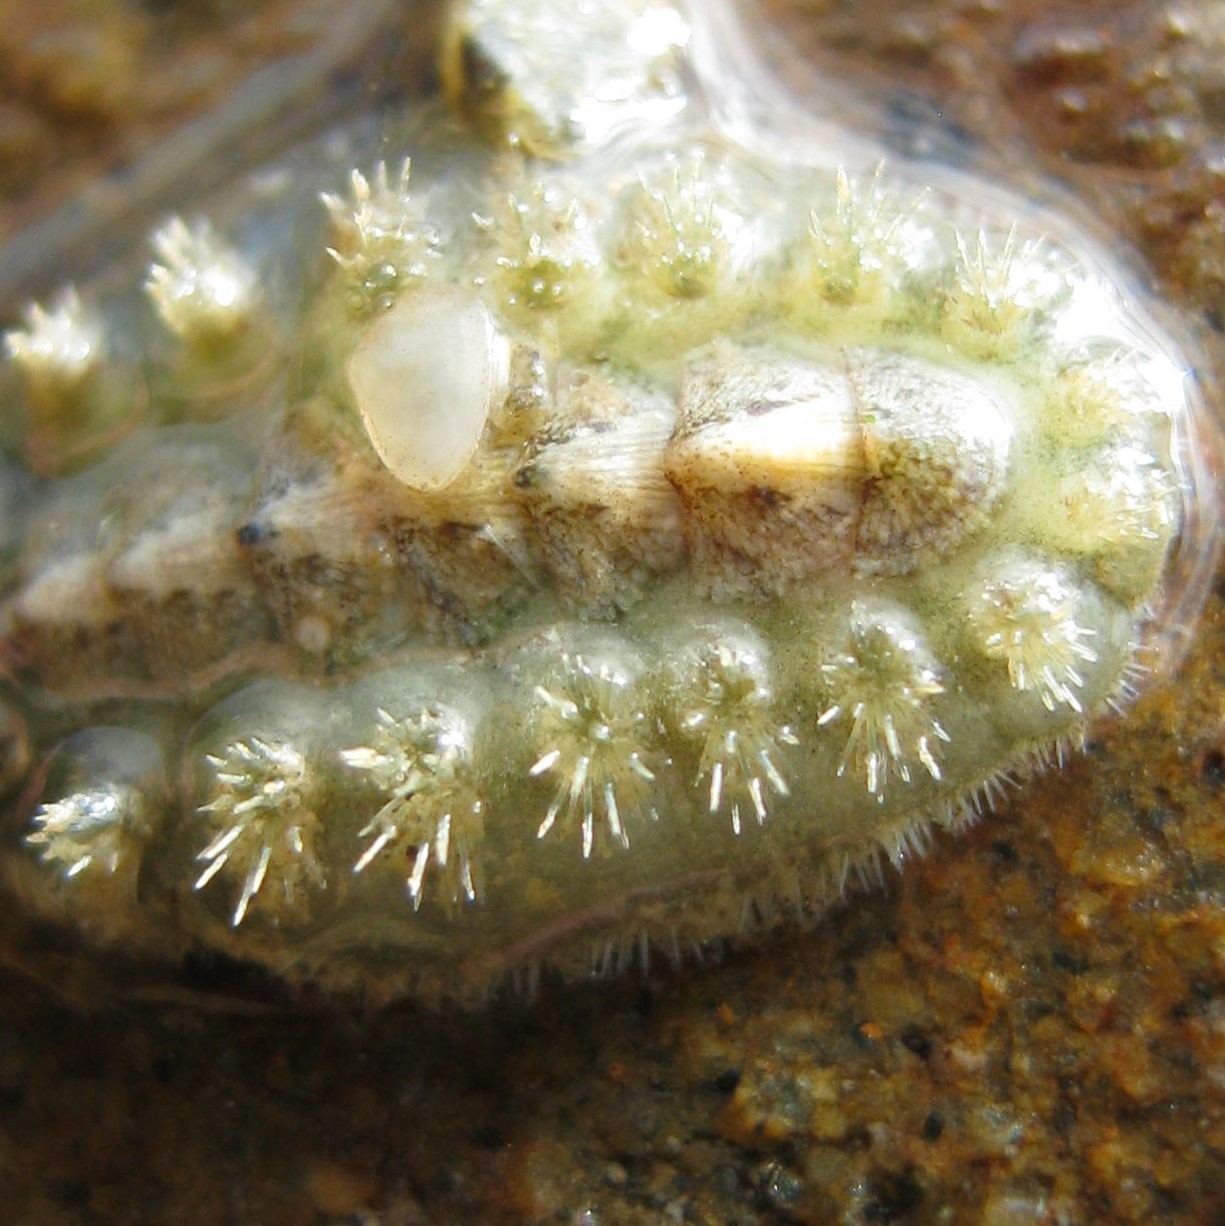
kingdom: Animalia
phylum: Mollusca
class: Polyplacophora
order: Chitonida
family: Acanthochitonidae
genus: Acanthochitona
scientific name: Acanthochitona zelandica
